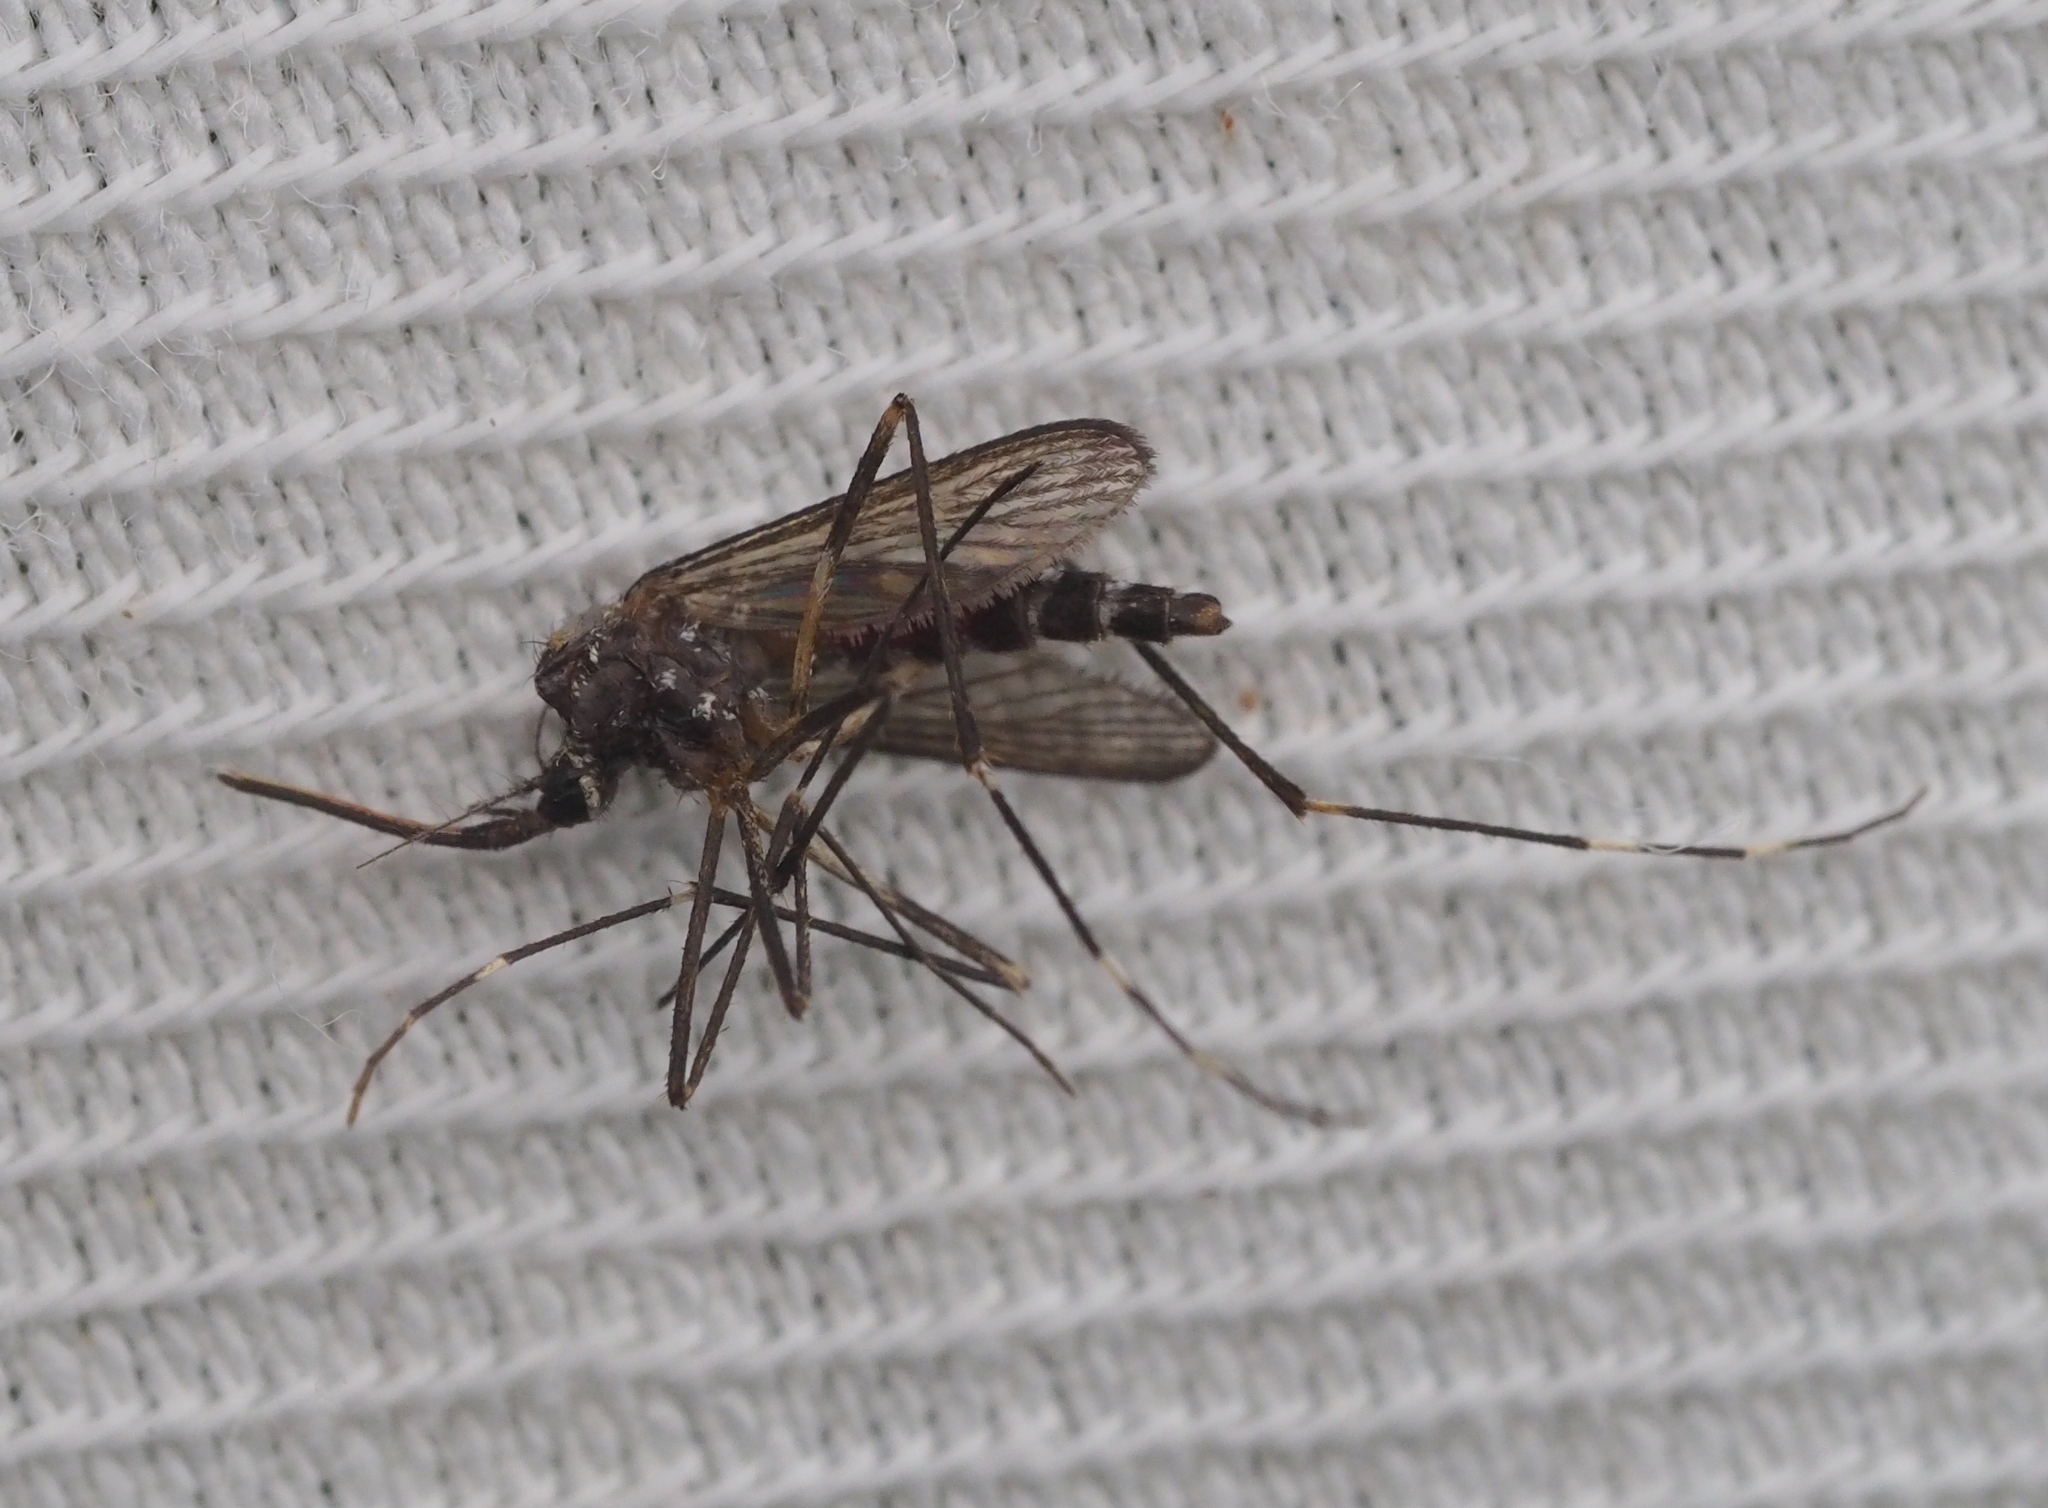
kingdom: Animalia
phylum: Arthropoda
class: Insecta
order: Diptera
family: Culicidae
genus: Aedes
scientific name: Aedes japonicus
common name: Asian bush mosquito
